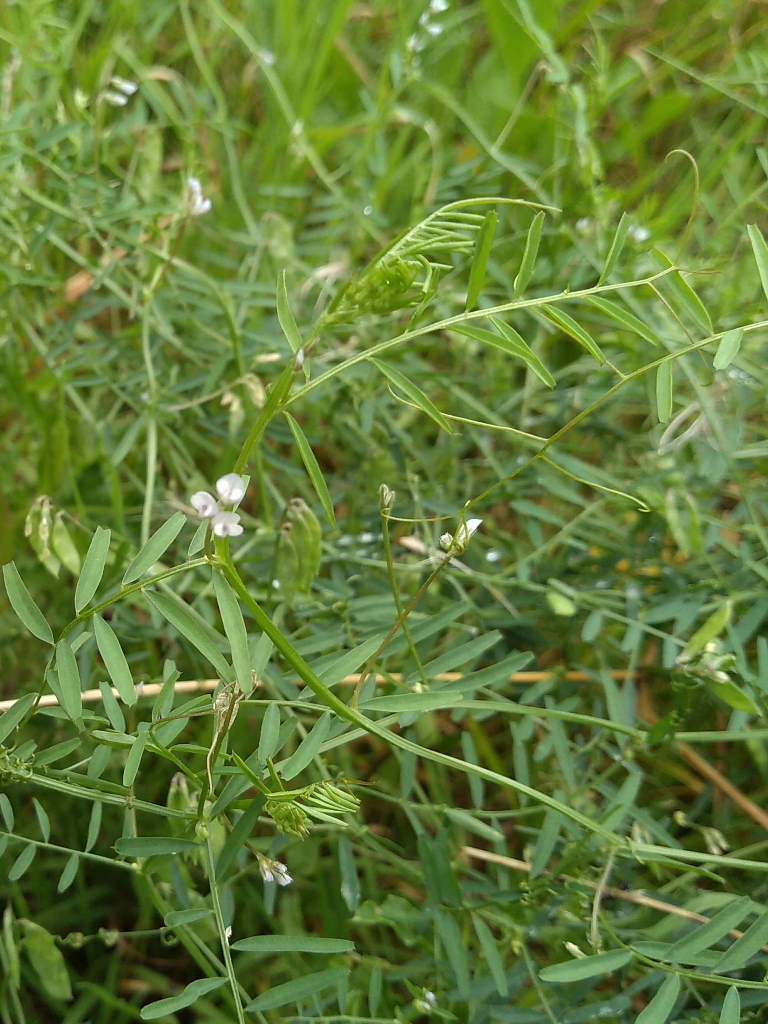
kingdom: Plantae
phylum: Tracheophyta
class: Magnoliopsida
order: Fabales
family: Fabaceae
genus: Vicia
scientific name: Vicia hirsuta
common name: Tiny vetch
